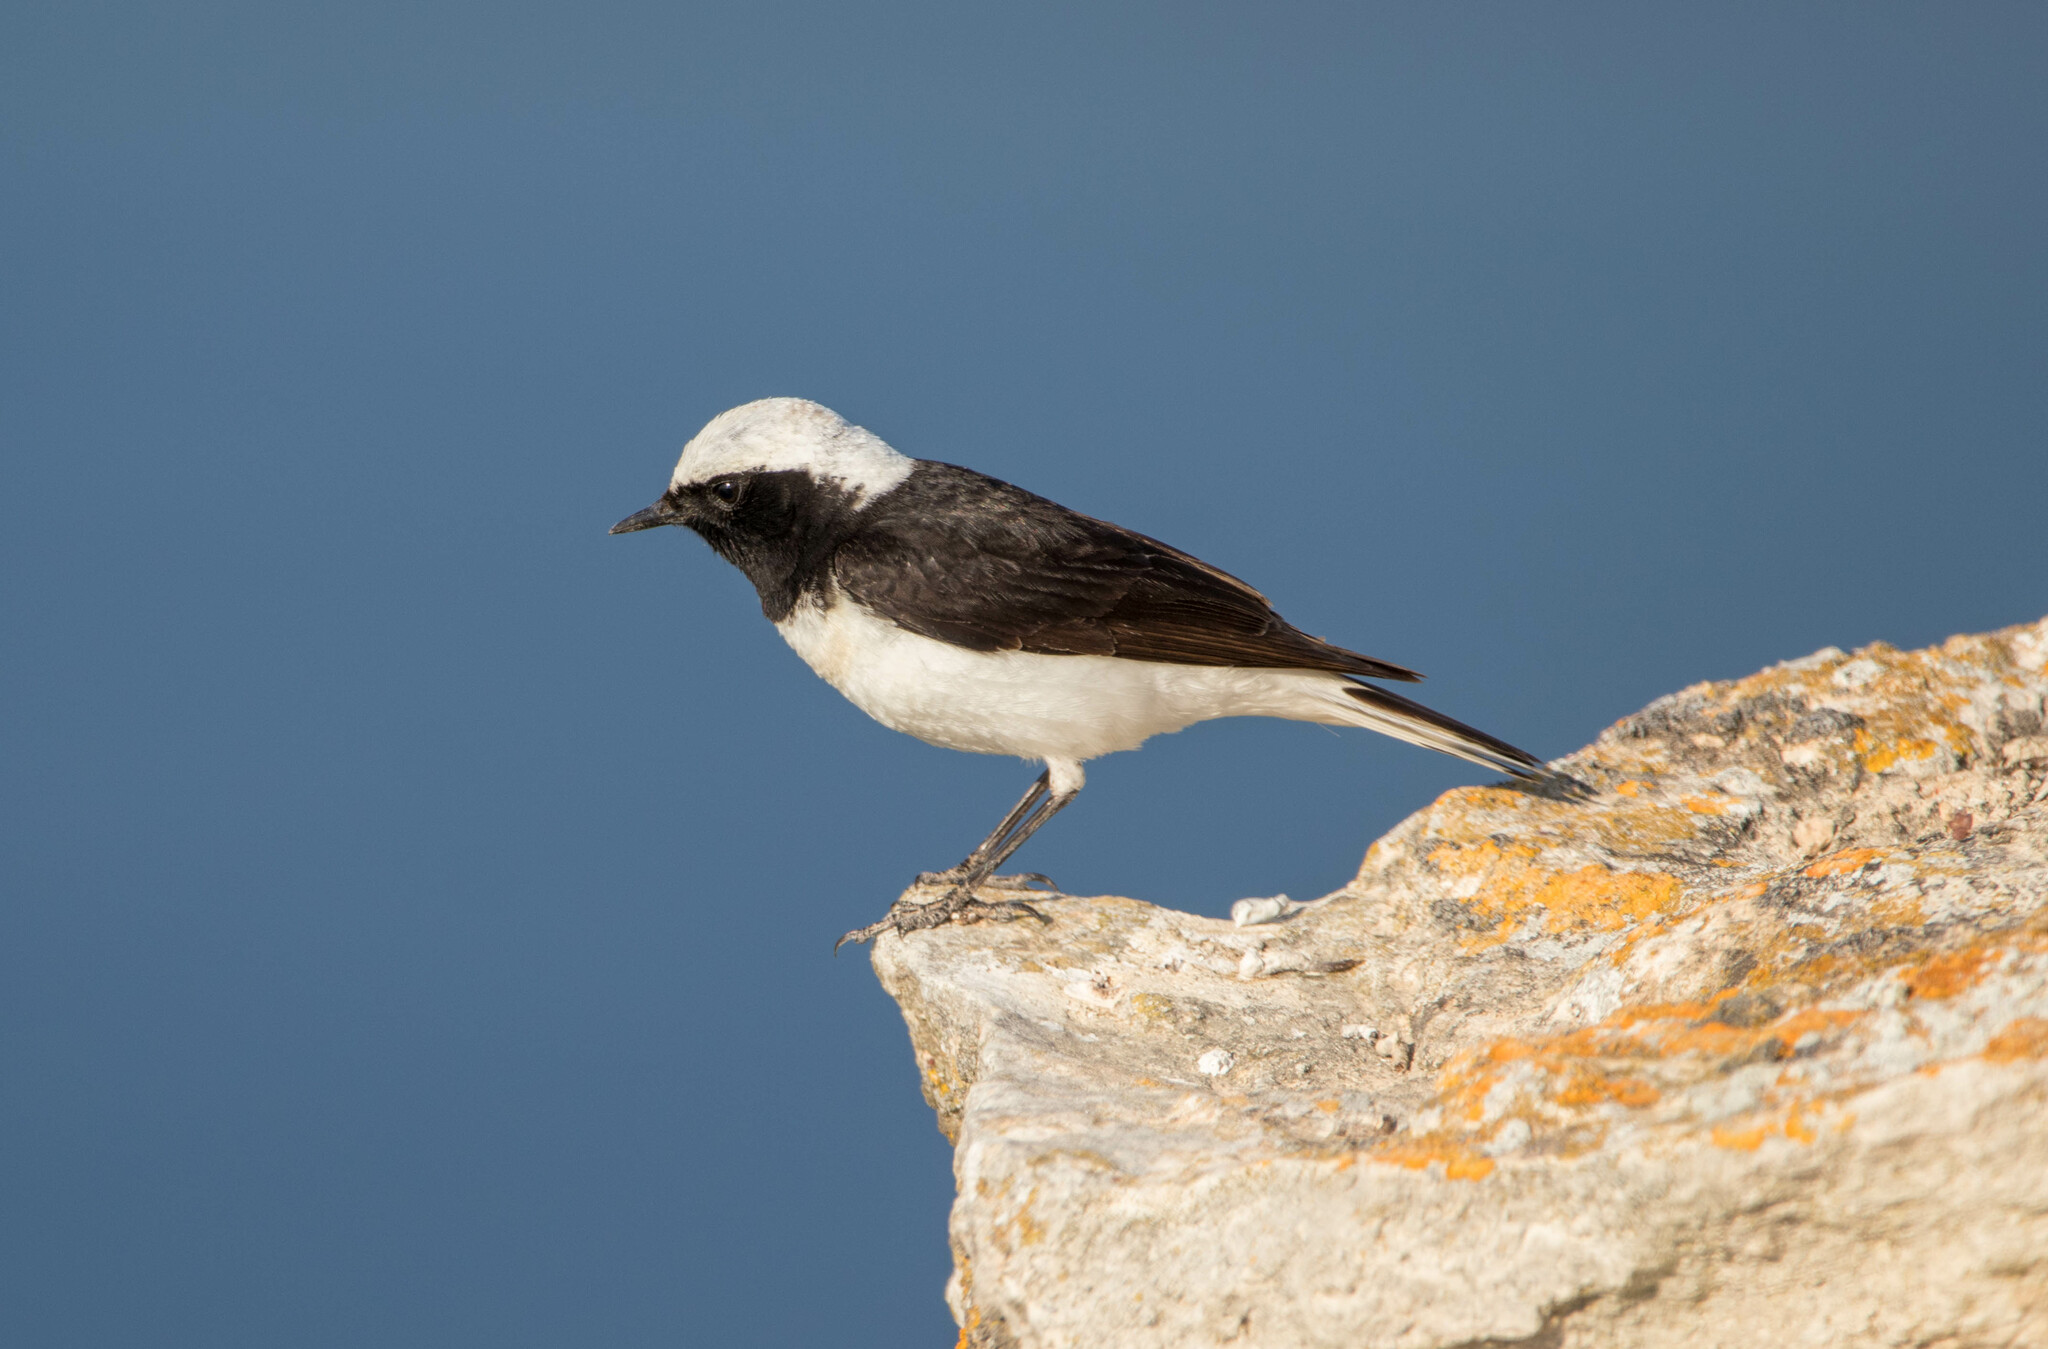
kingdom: Animalia
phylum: Chordata
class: Aves
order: Passeriformes
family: Muscicapidae
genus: Oenanthe
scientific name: Oenanthe pleschanka
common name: Pied wheatear
